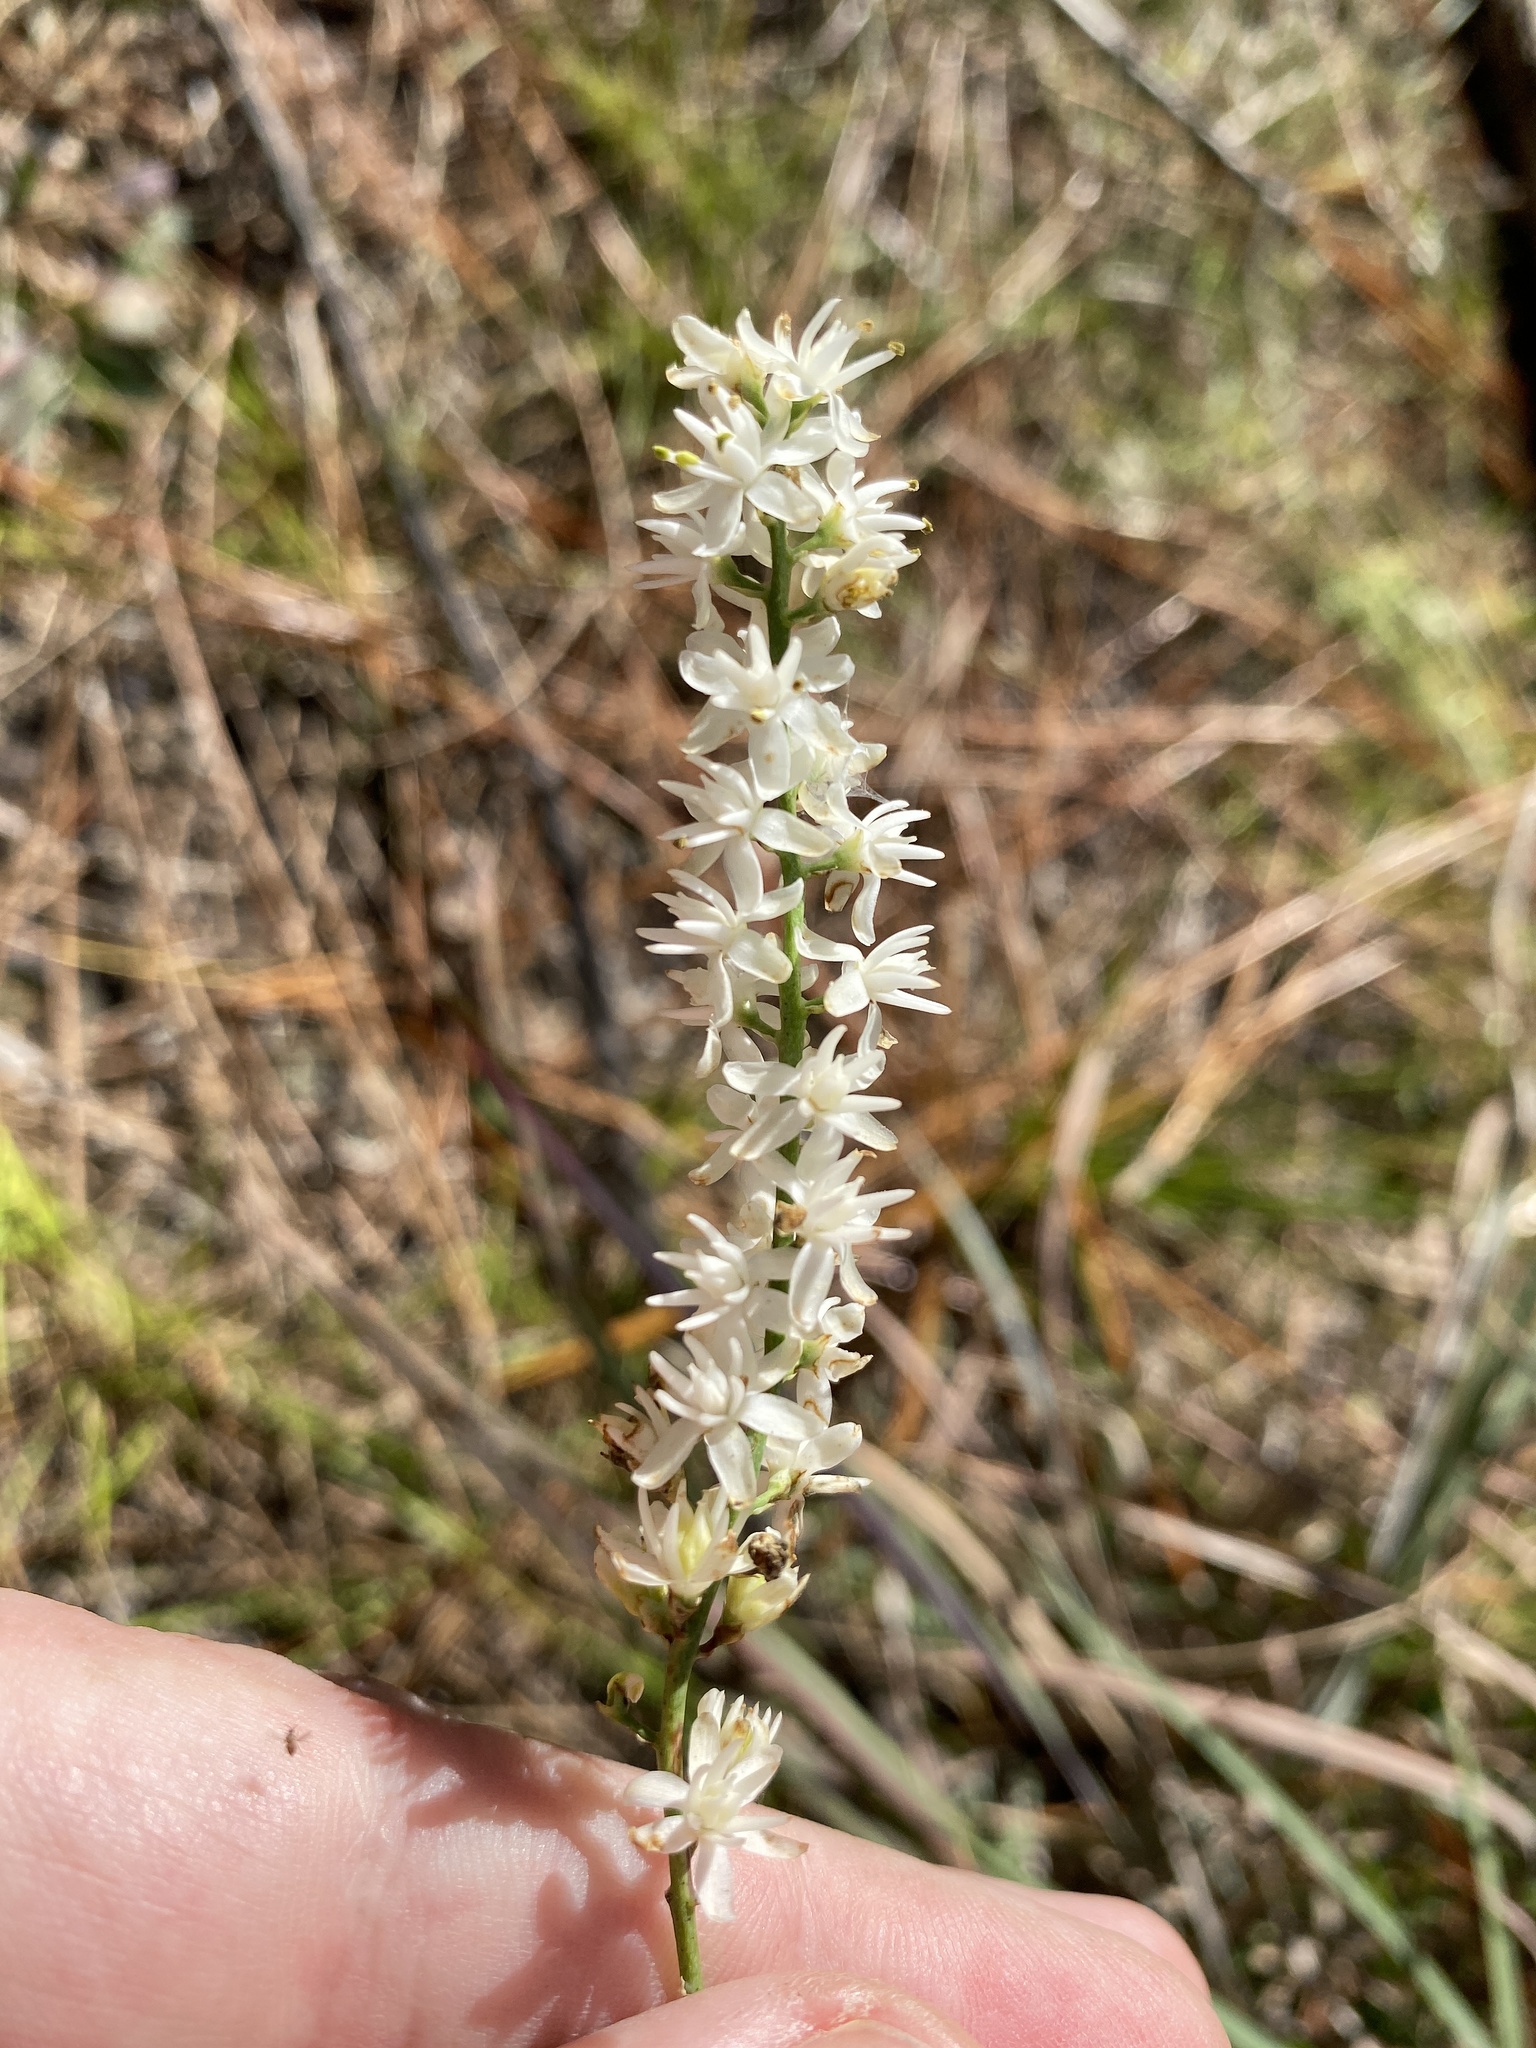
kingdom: Plantae
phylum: Tracheophyta
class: Liliopsida
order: Alismatales
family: Tofieldiaceae
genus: Tofieldia
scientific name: Tofieldia glabra
